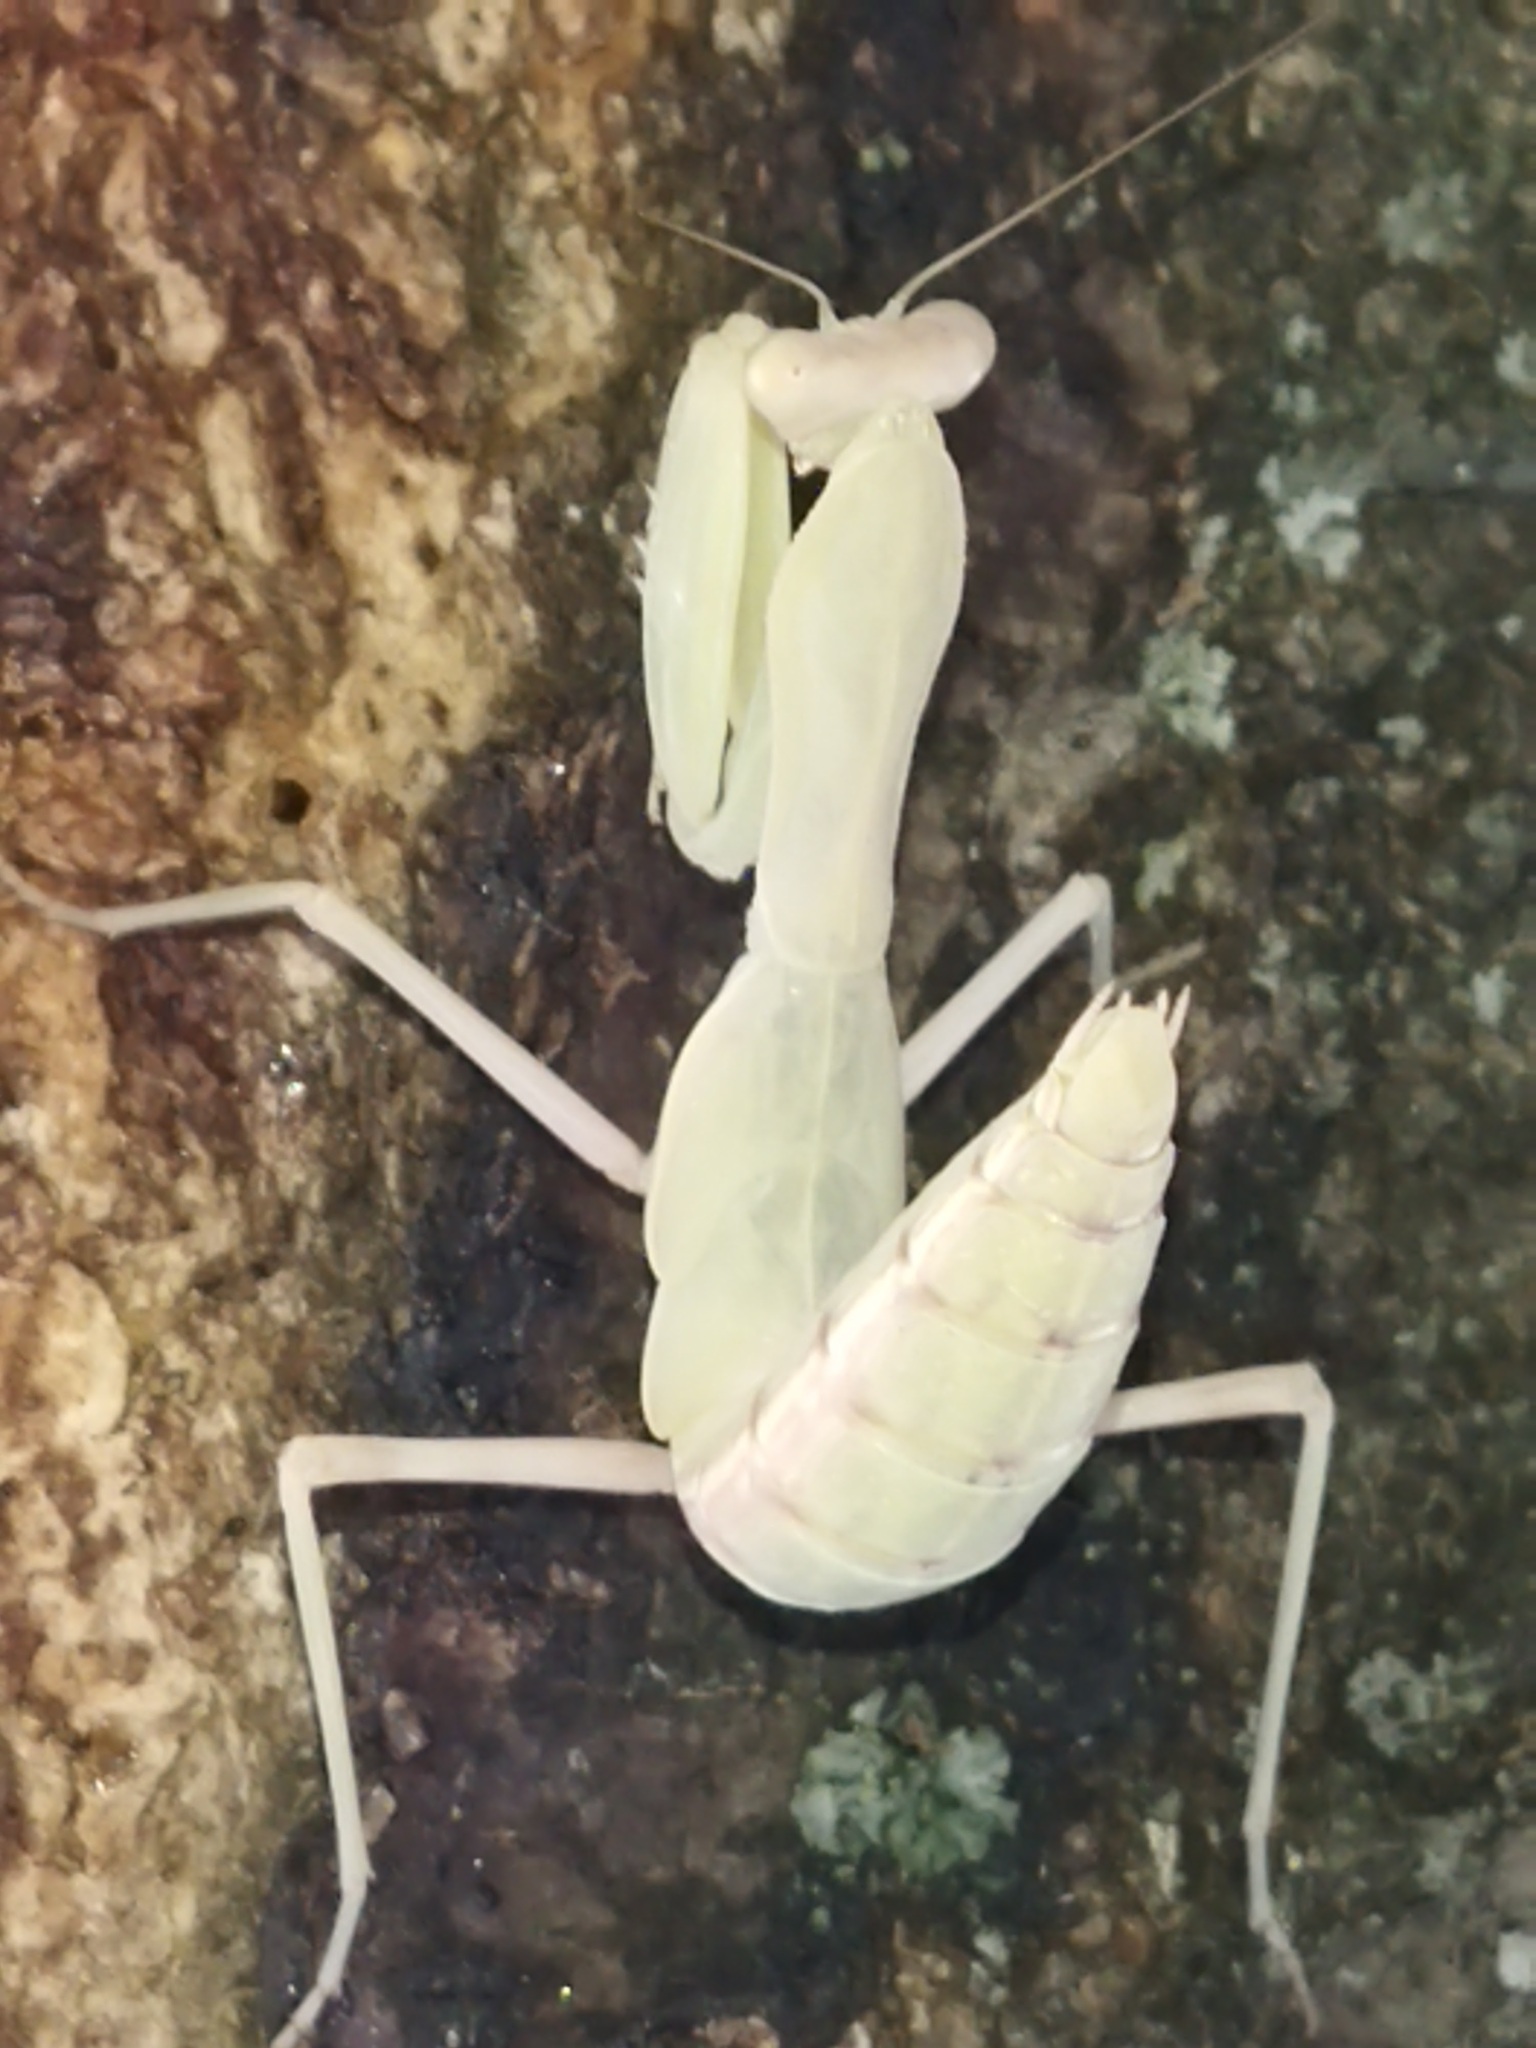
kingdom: Animalia
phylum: Arthropoda
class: Insecta
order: Mantodea
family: Mantidae
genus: Hierodula
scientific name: Hierodula transcaucasica
